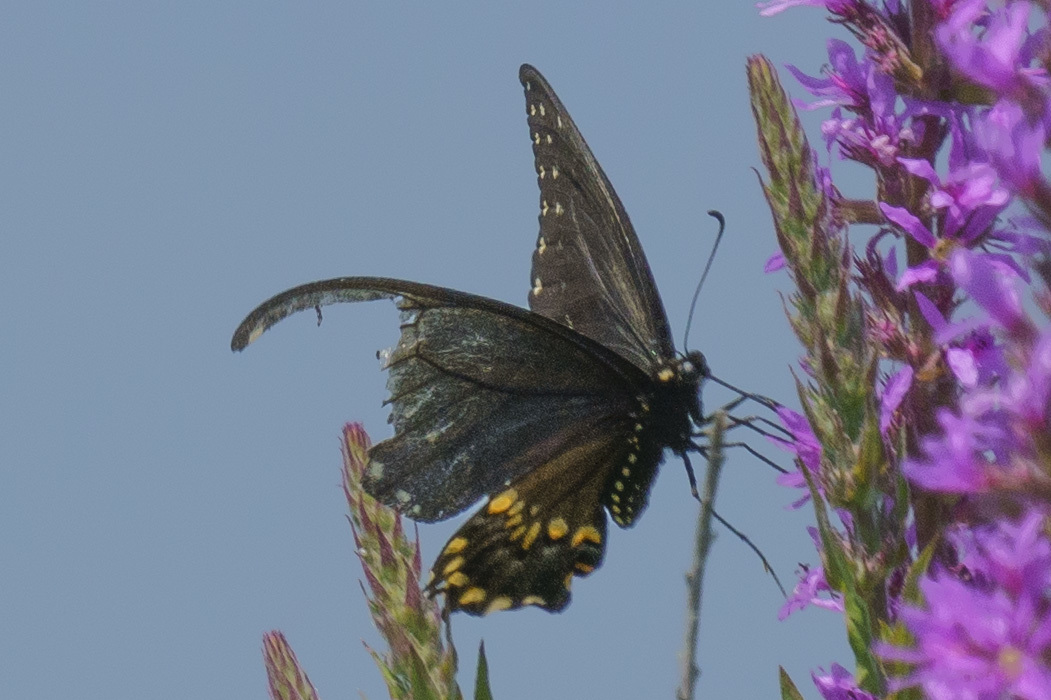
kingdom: Animalia
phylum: Arthropoda
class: Insecta
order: Lepidoptera
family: Papilionidae
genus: Papilio
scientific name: Papilio polyxenes
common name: Black swallowtail
